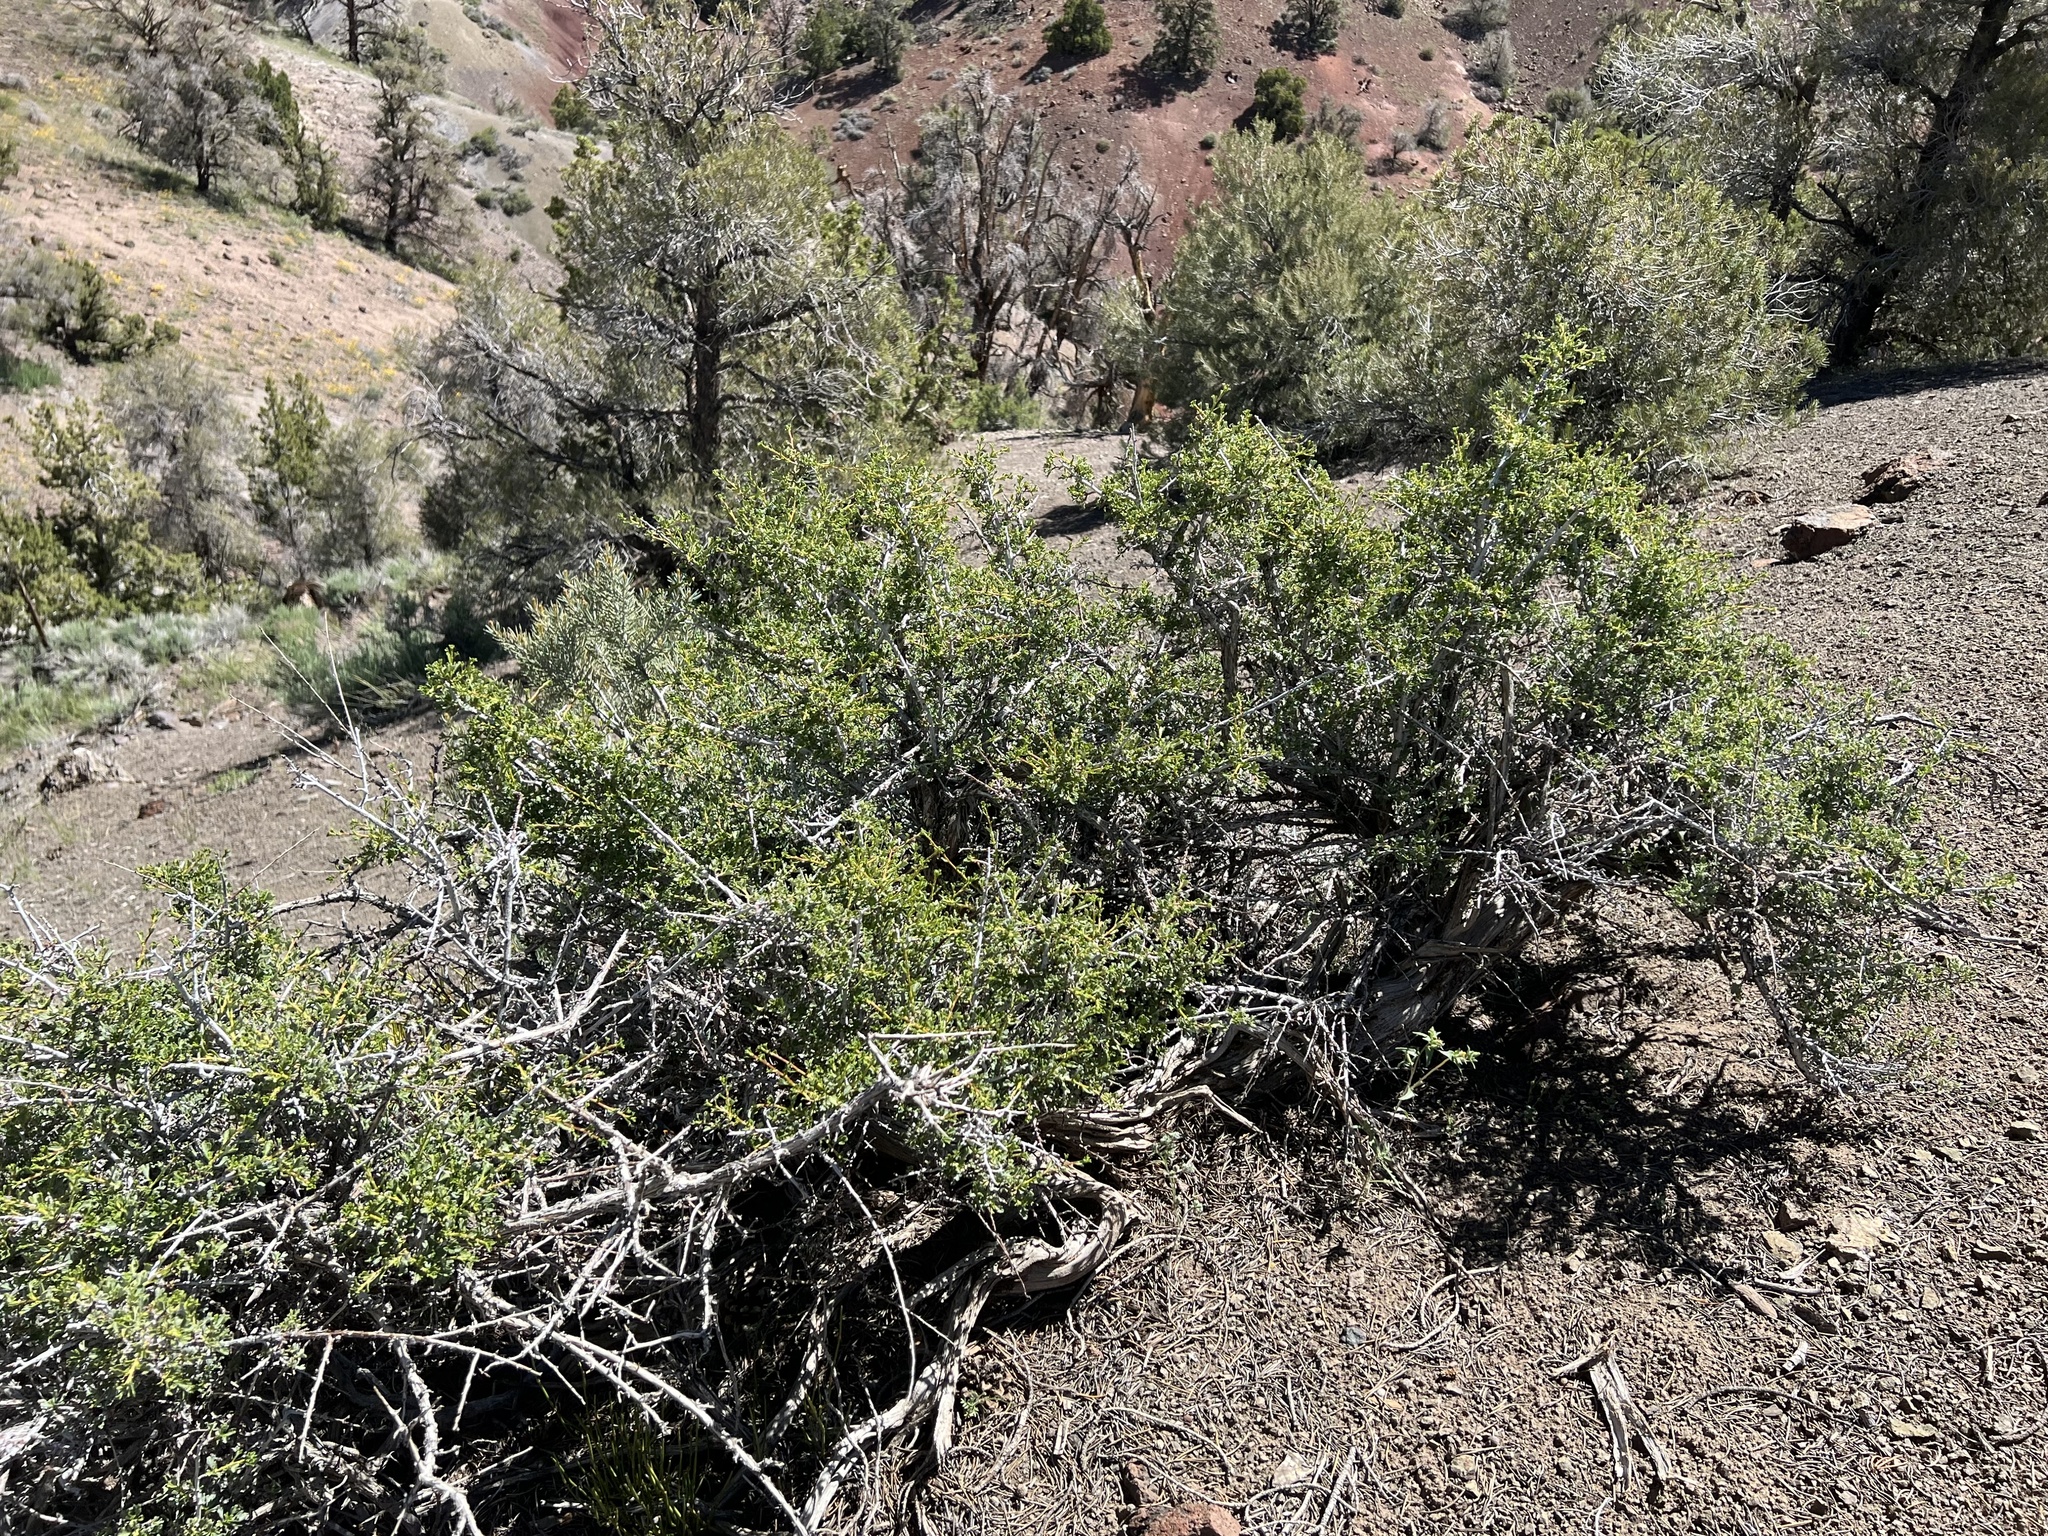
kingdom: Plantae
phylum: Tracheophyta
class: Magnoliopsida
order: Rosales
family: Rosaceae
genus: Purshia
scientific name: Purshia tridentata
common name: Antelope bitterbrush
